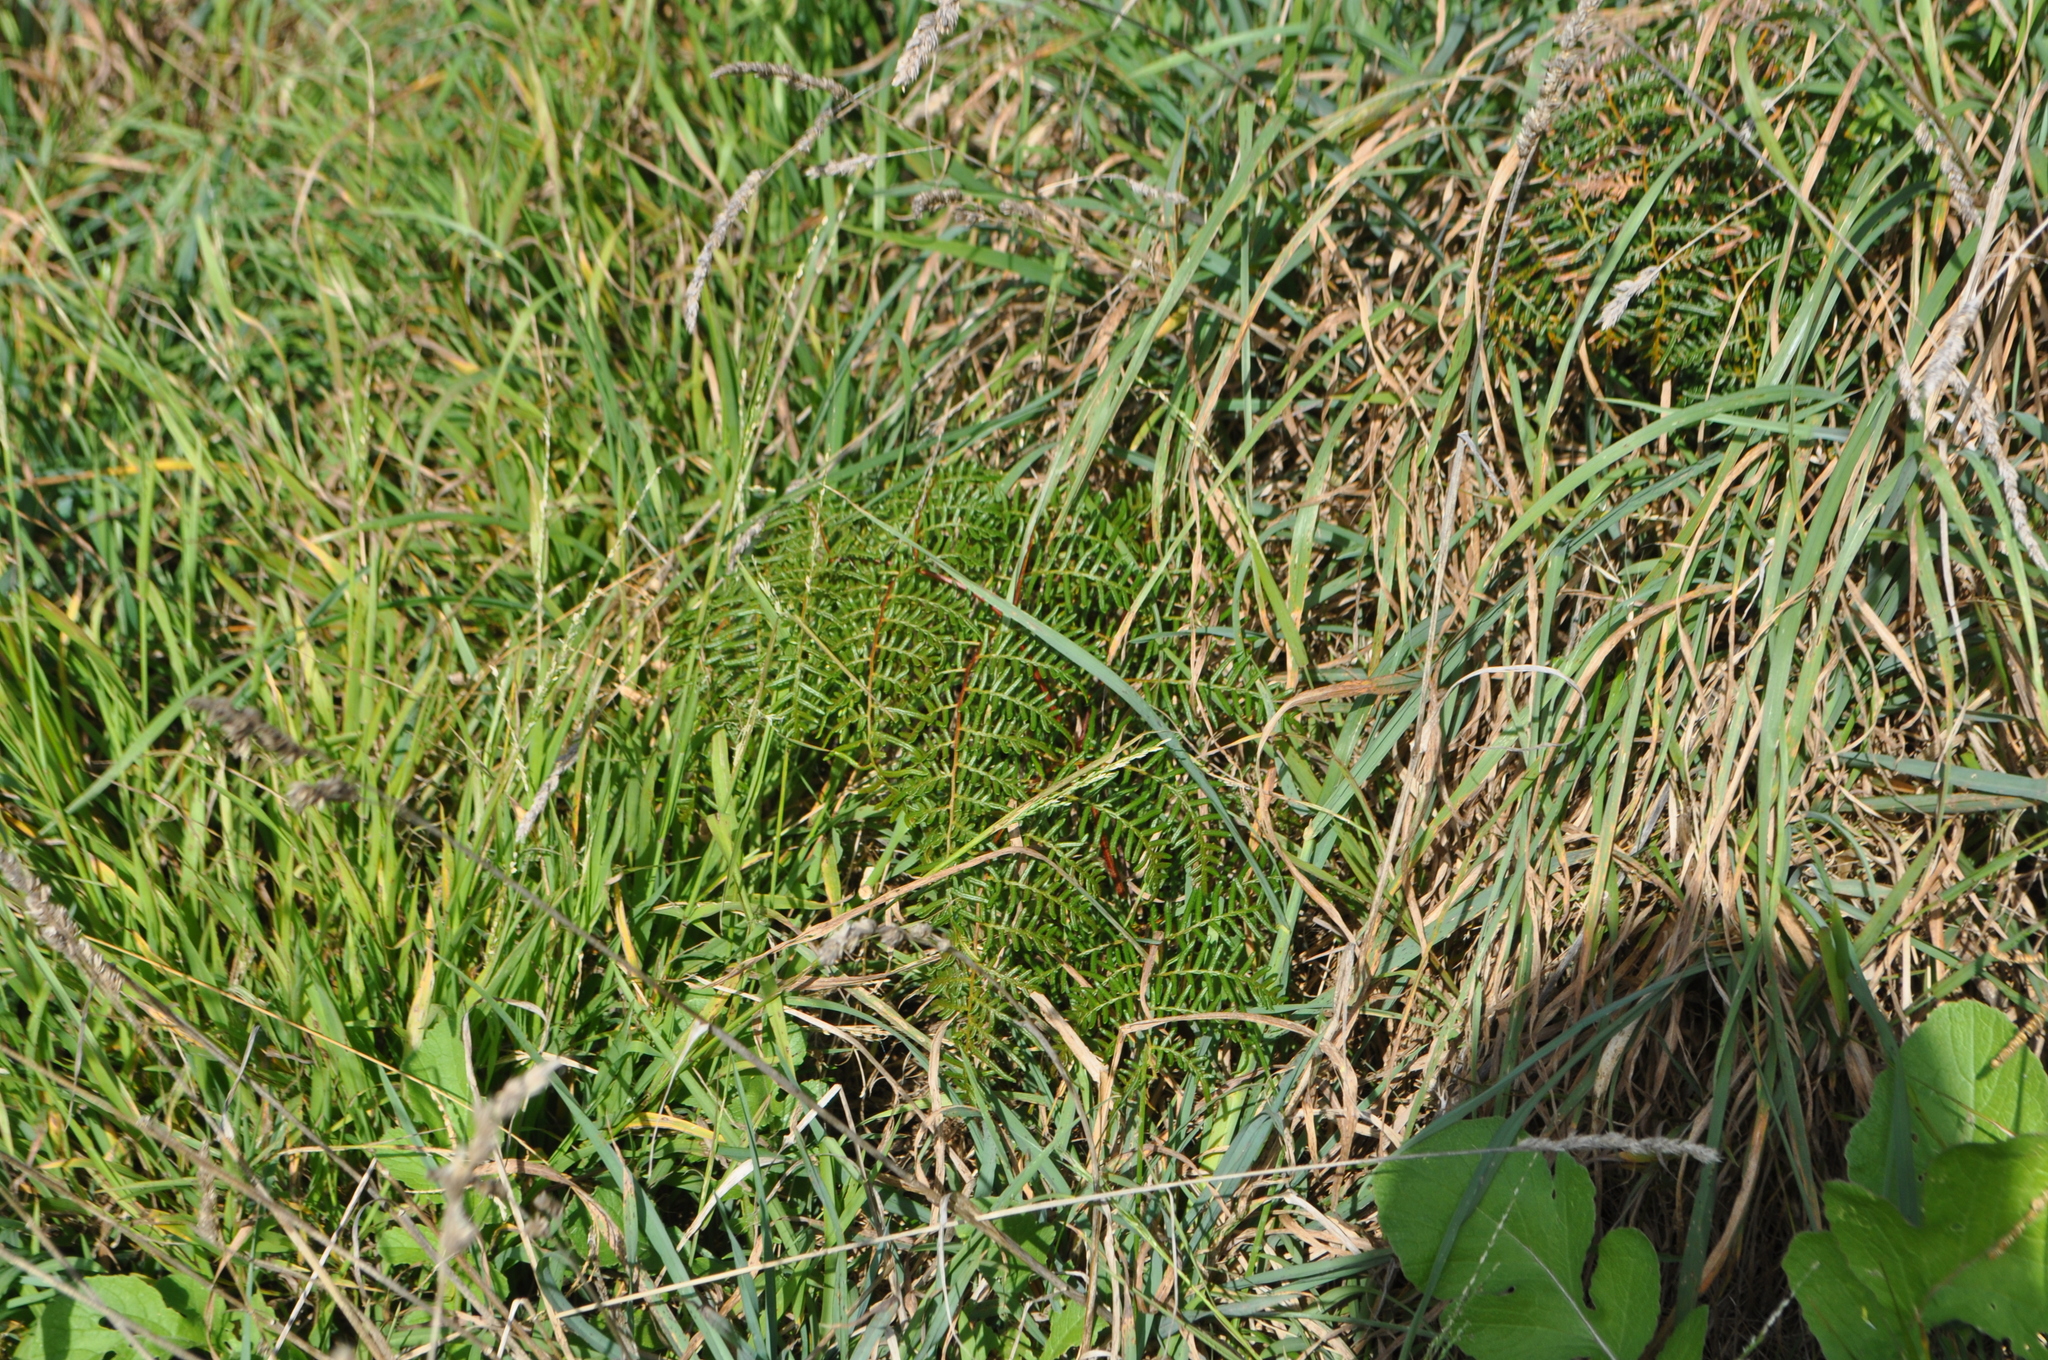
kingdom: Plantae
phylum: Tracheophyta
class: Polypodiopsida
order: Polypodiales
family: Dennstaedtiaceae
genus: Pteridium
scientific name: Pteridium esculentum
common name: Bracken fern
